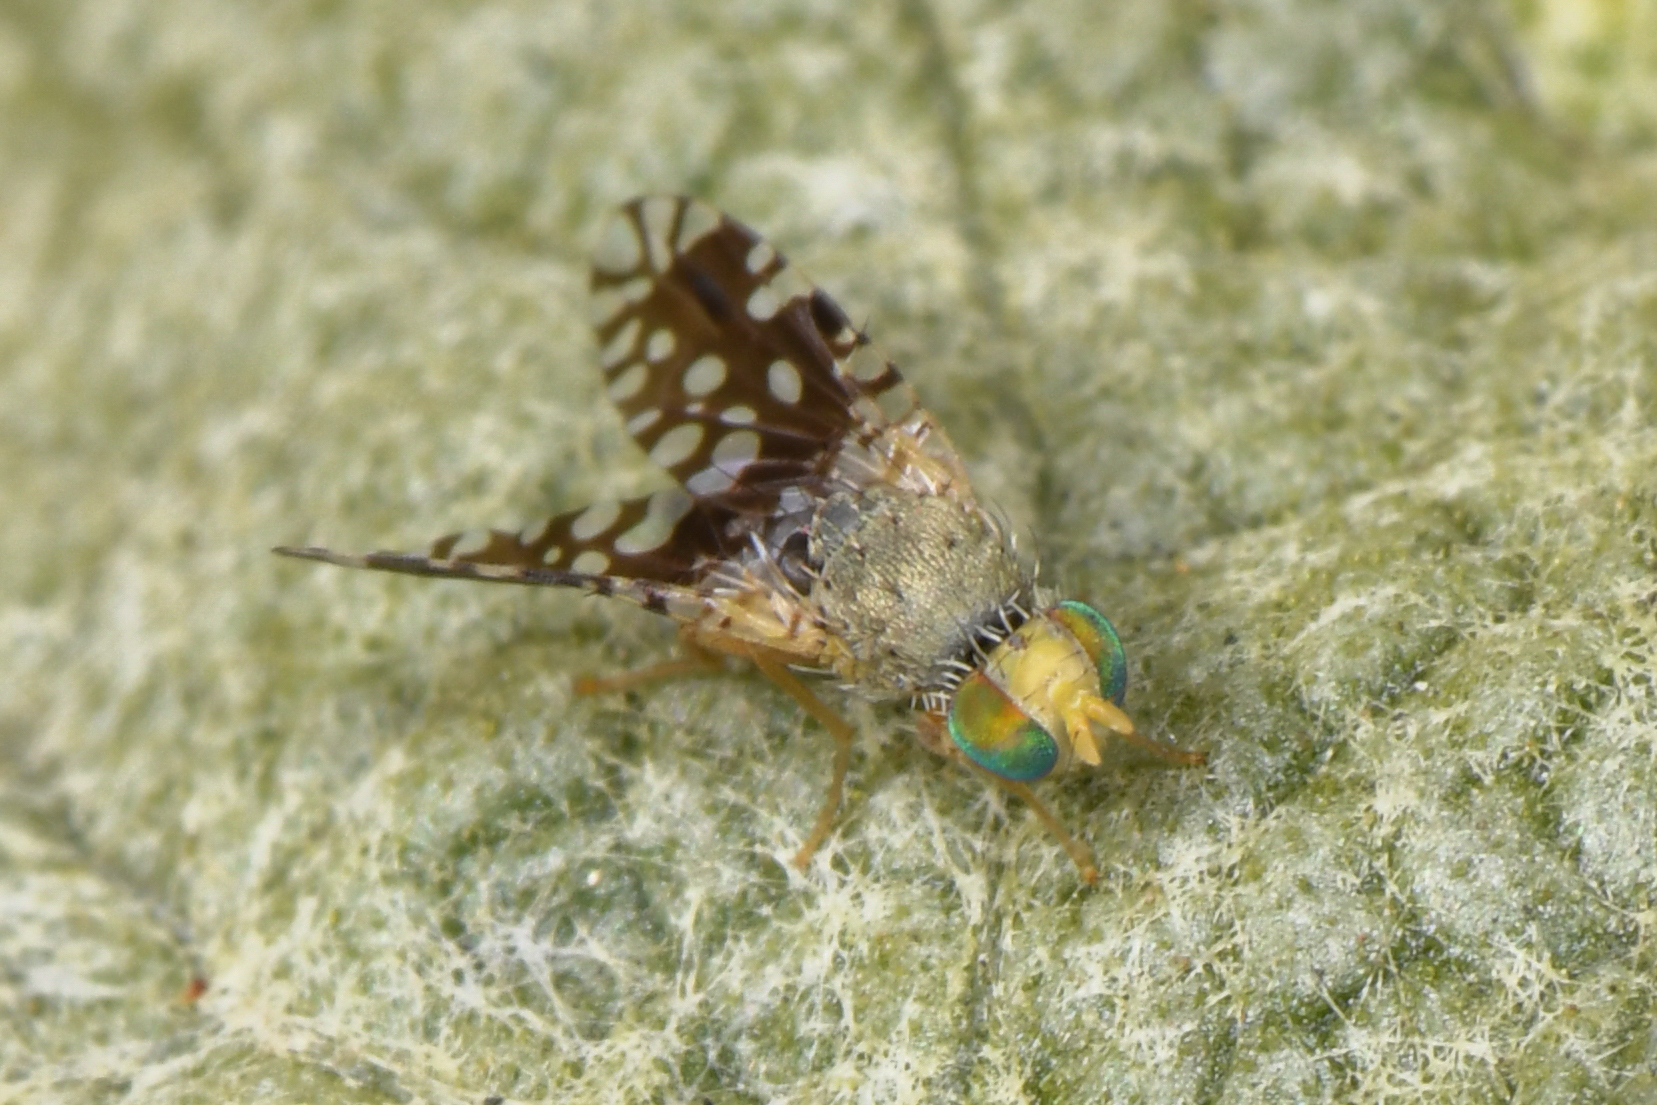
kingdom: Animalia
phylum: Arthropoda
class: Insecta
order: Diptera
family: Tephritidae
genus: Euaresta
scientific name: Euaresta stelligera
